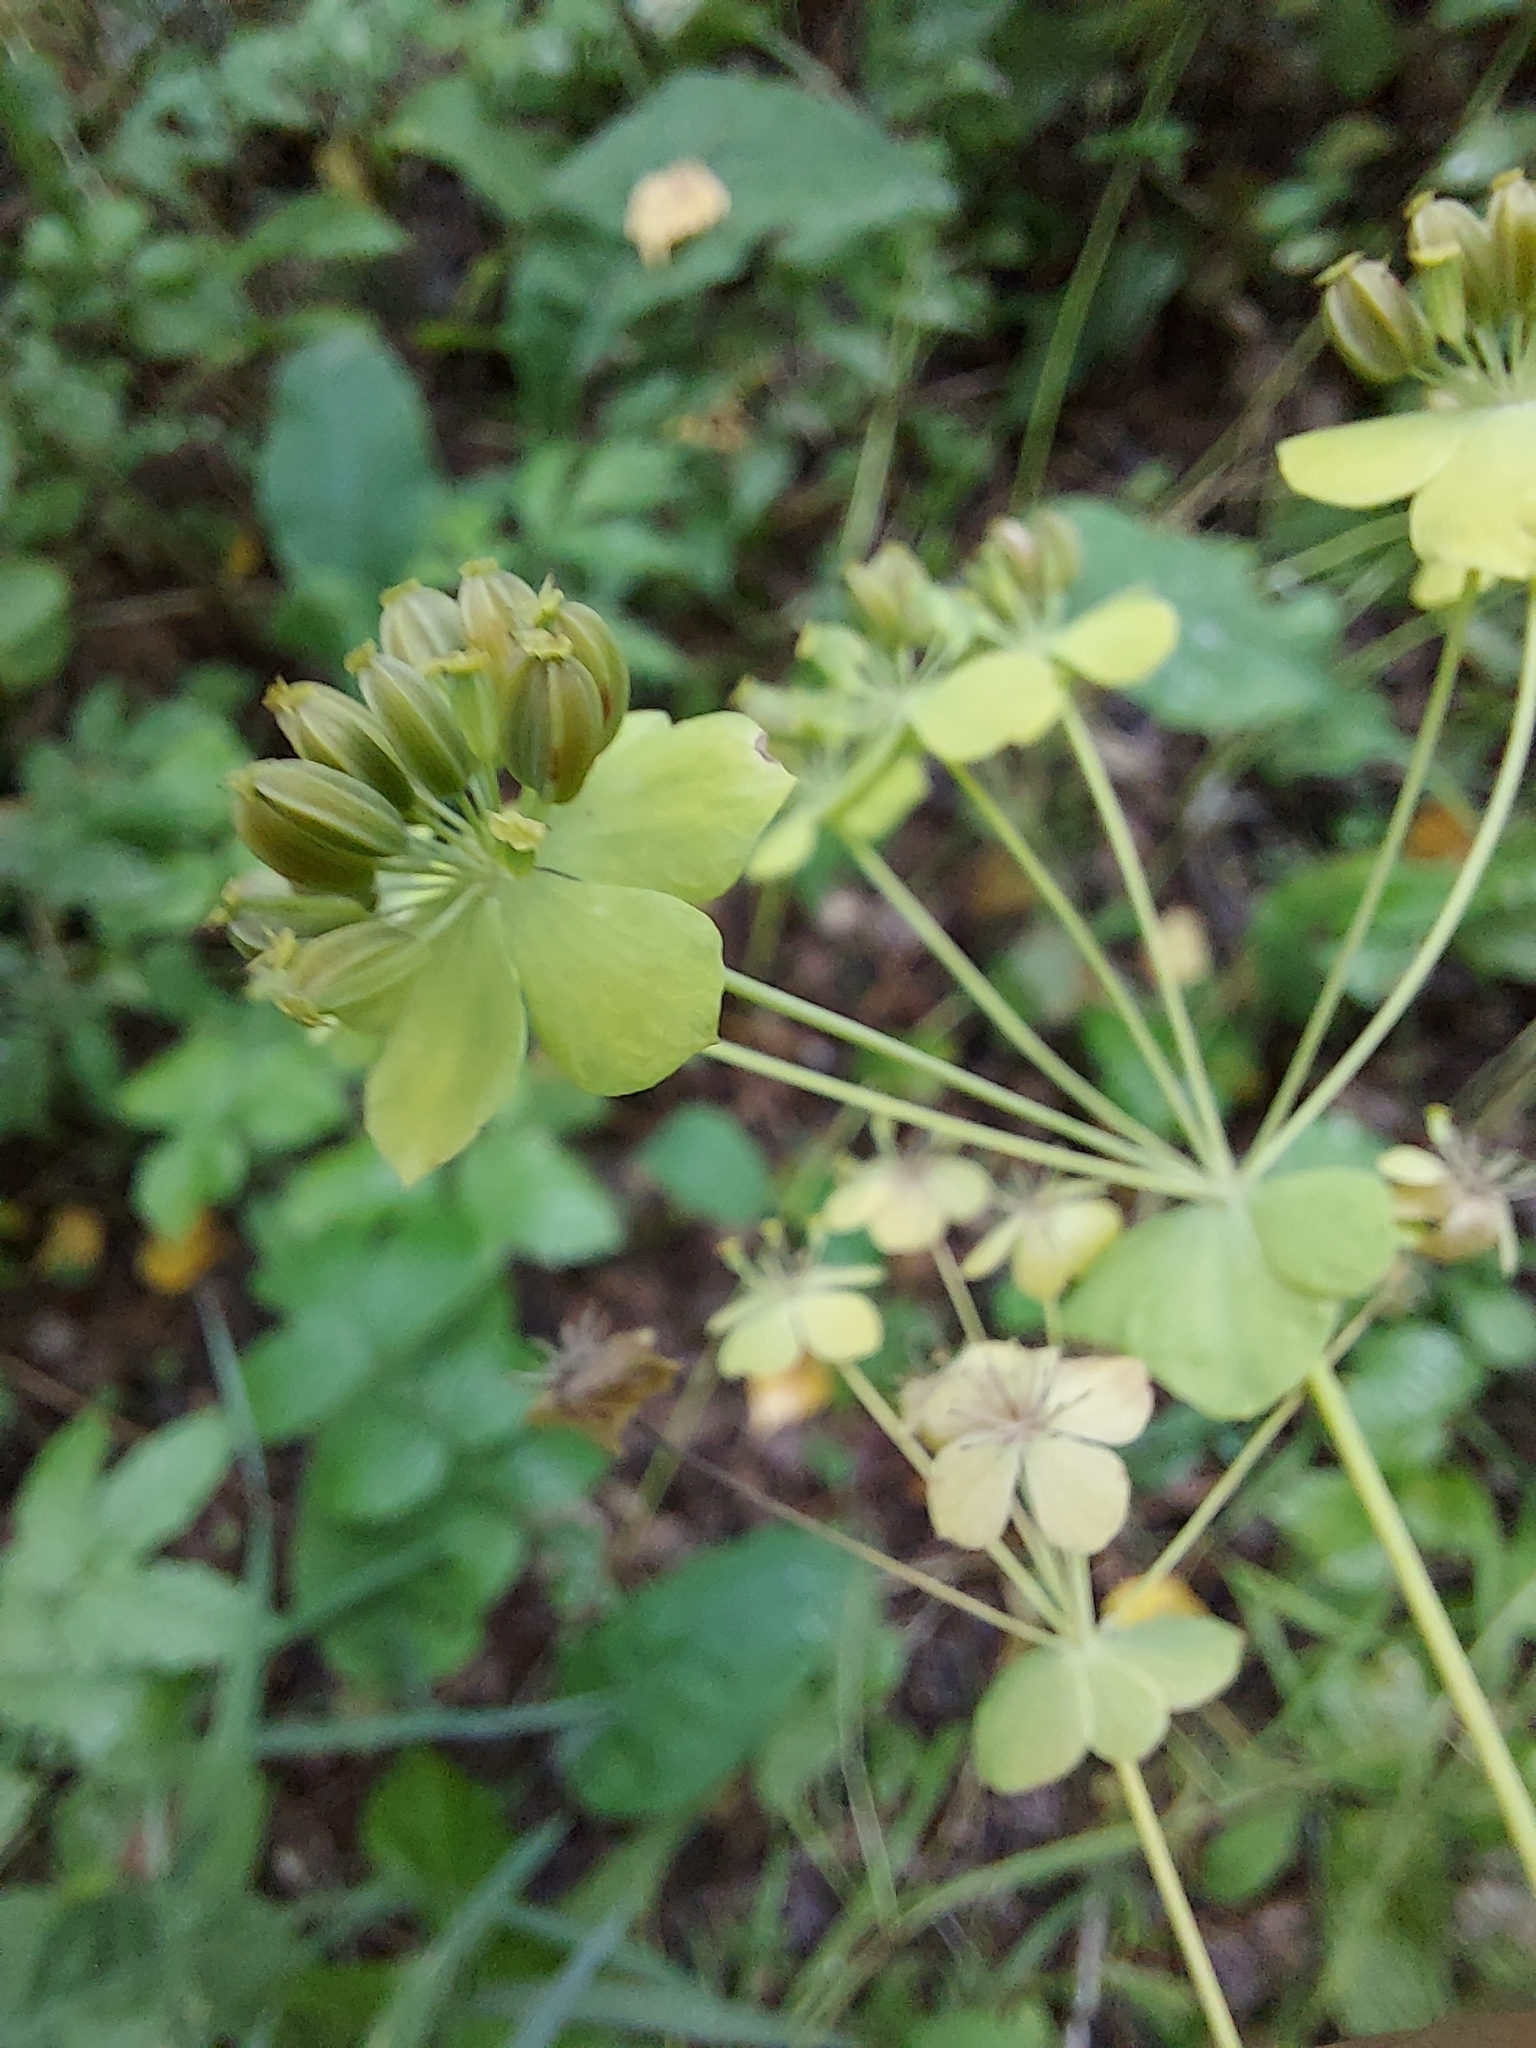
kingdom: Plantae
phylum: Tracheophyta
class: Magnoliopsida
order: Apiales
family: Apiaceae
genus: Bupleurum
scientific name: Bupleurum aureum
